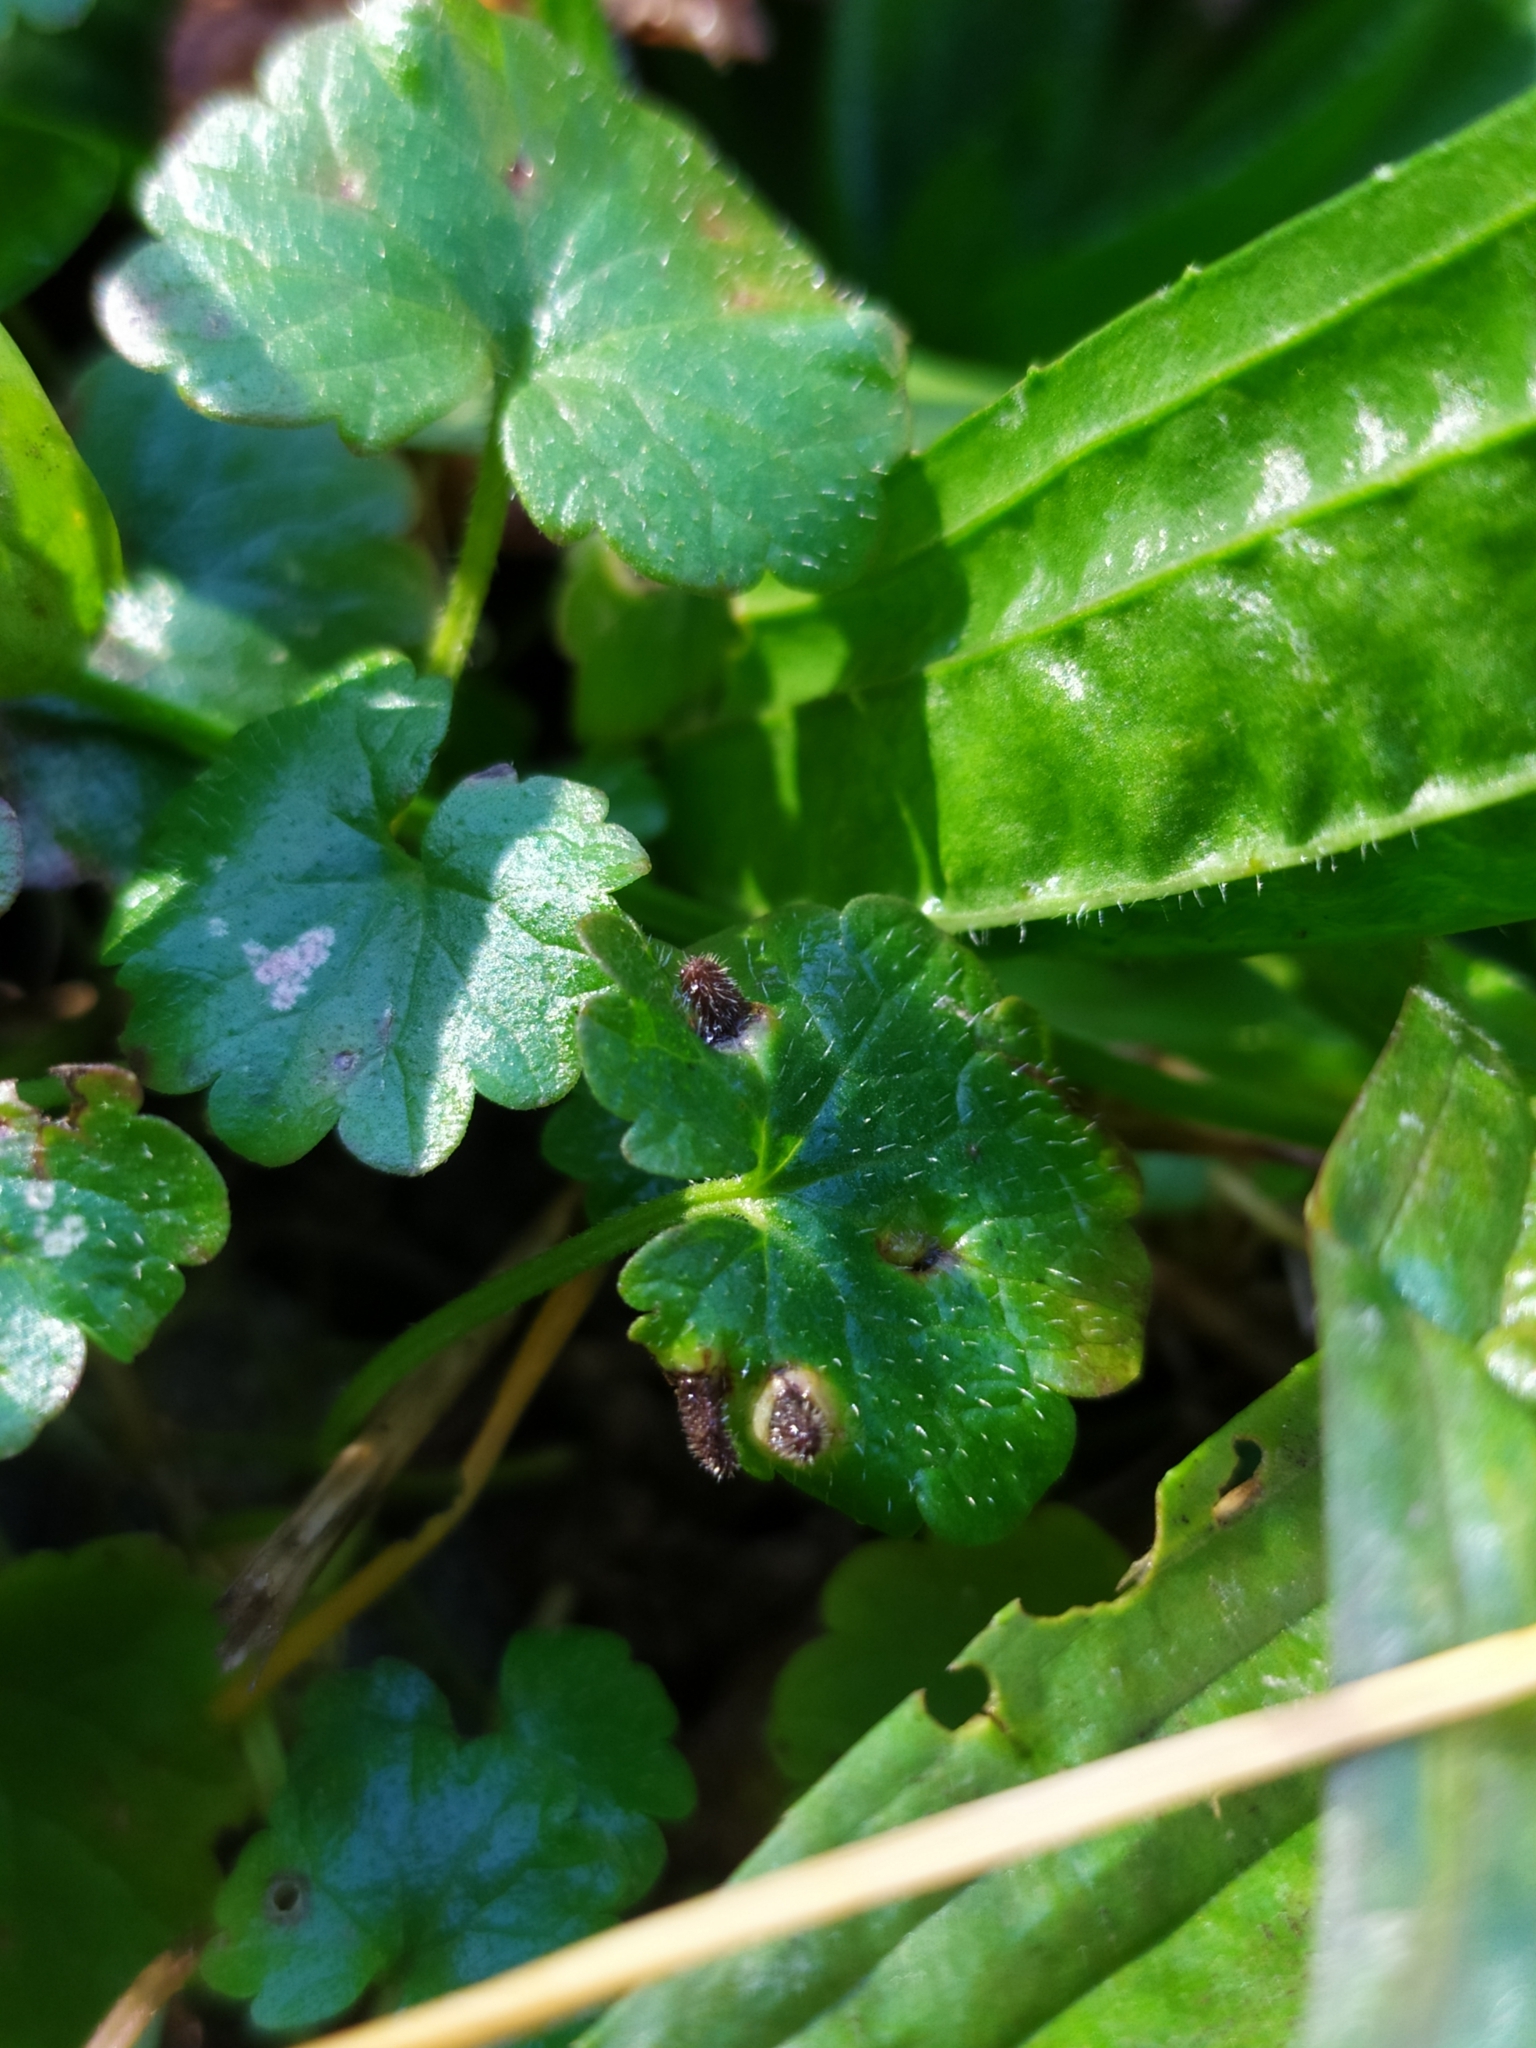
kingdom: Animalia
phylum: Arthropoda
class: Insecta
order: Diptera
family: Cecidomyiidae
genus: Rondaniola
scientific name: Rondaniola bursaria
